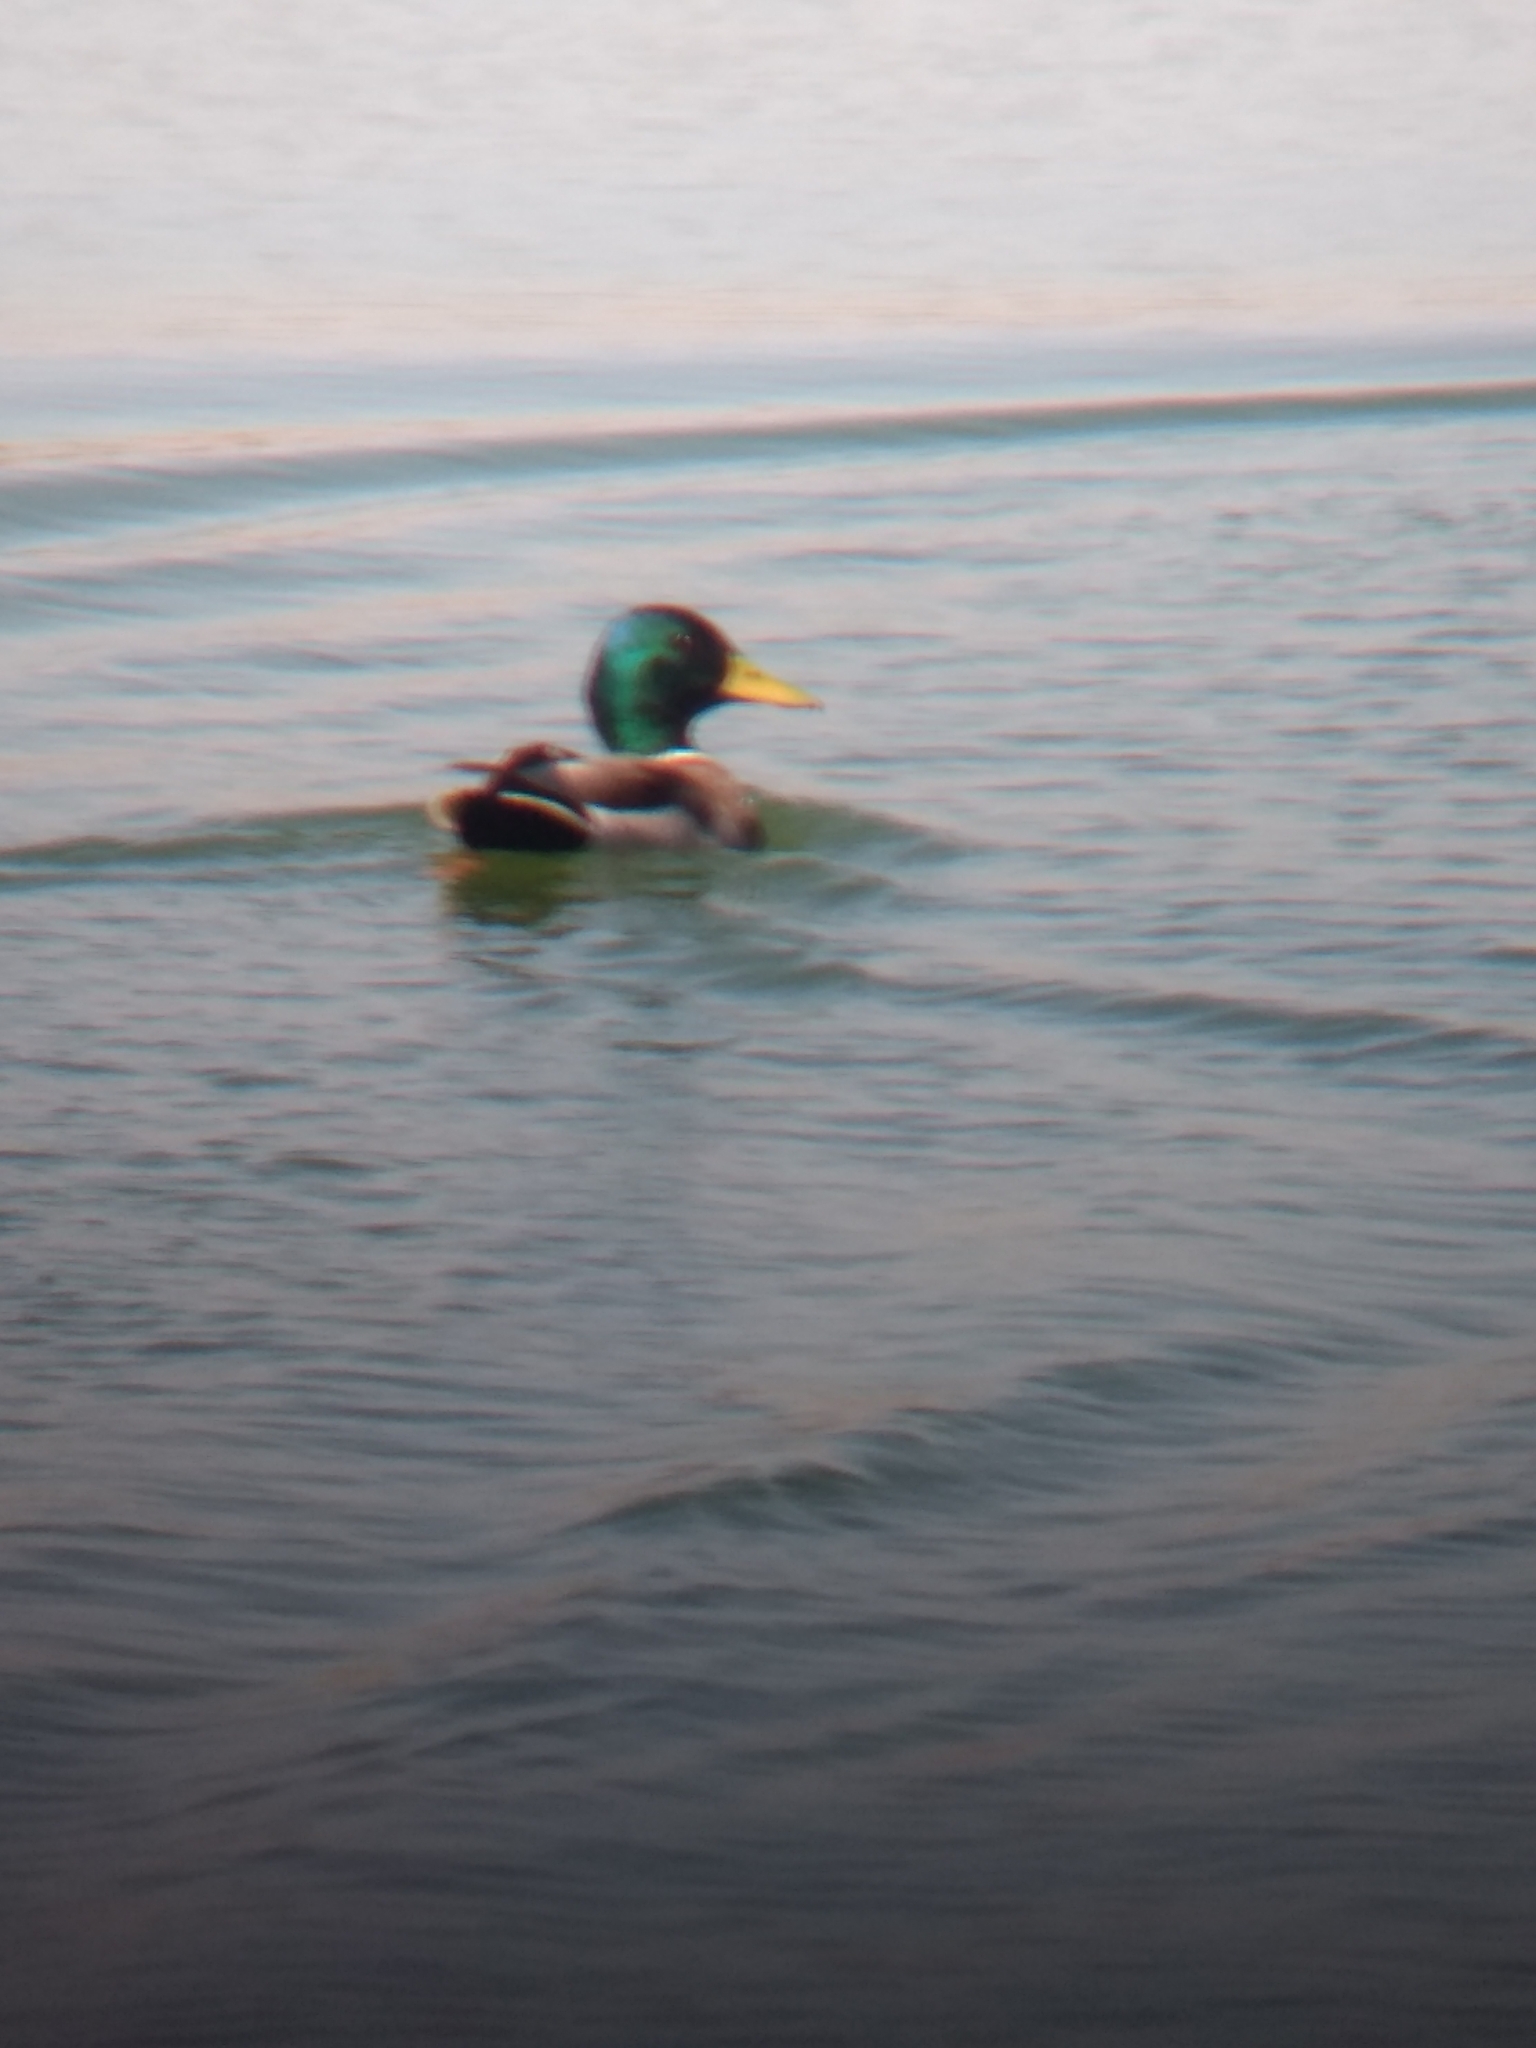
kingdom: Animalia
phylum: Chordata
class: Aves
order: Anseriformes
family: Anatidae
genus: Anas
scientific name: Anas platyrhynchos
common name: Mallard
